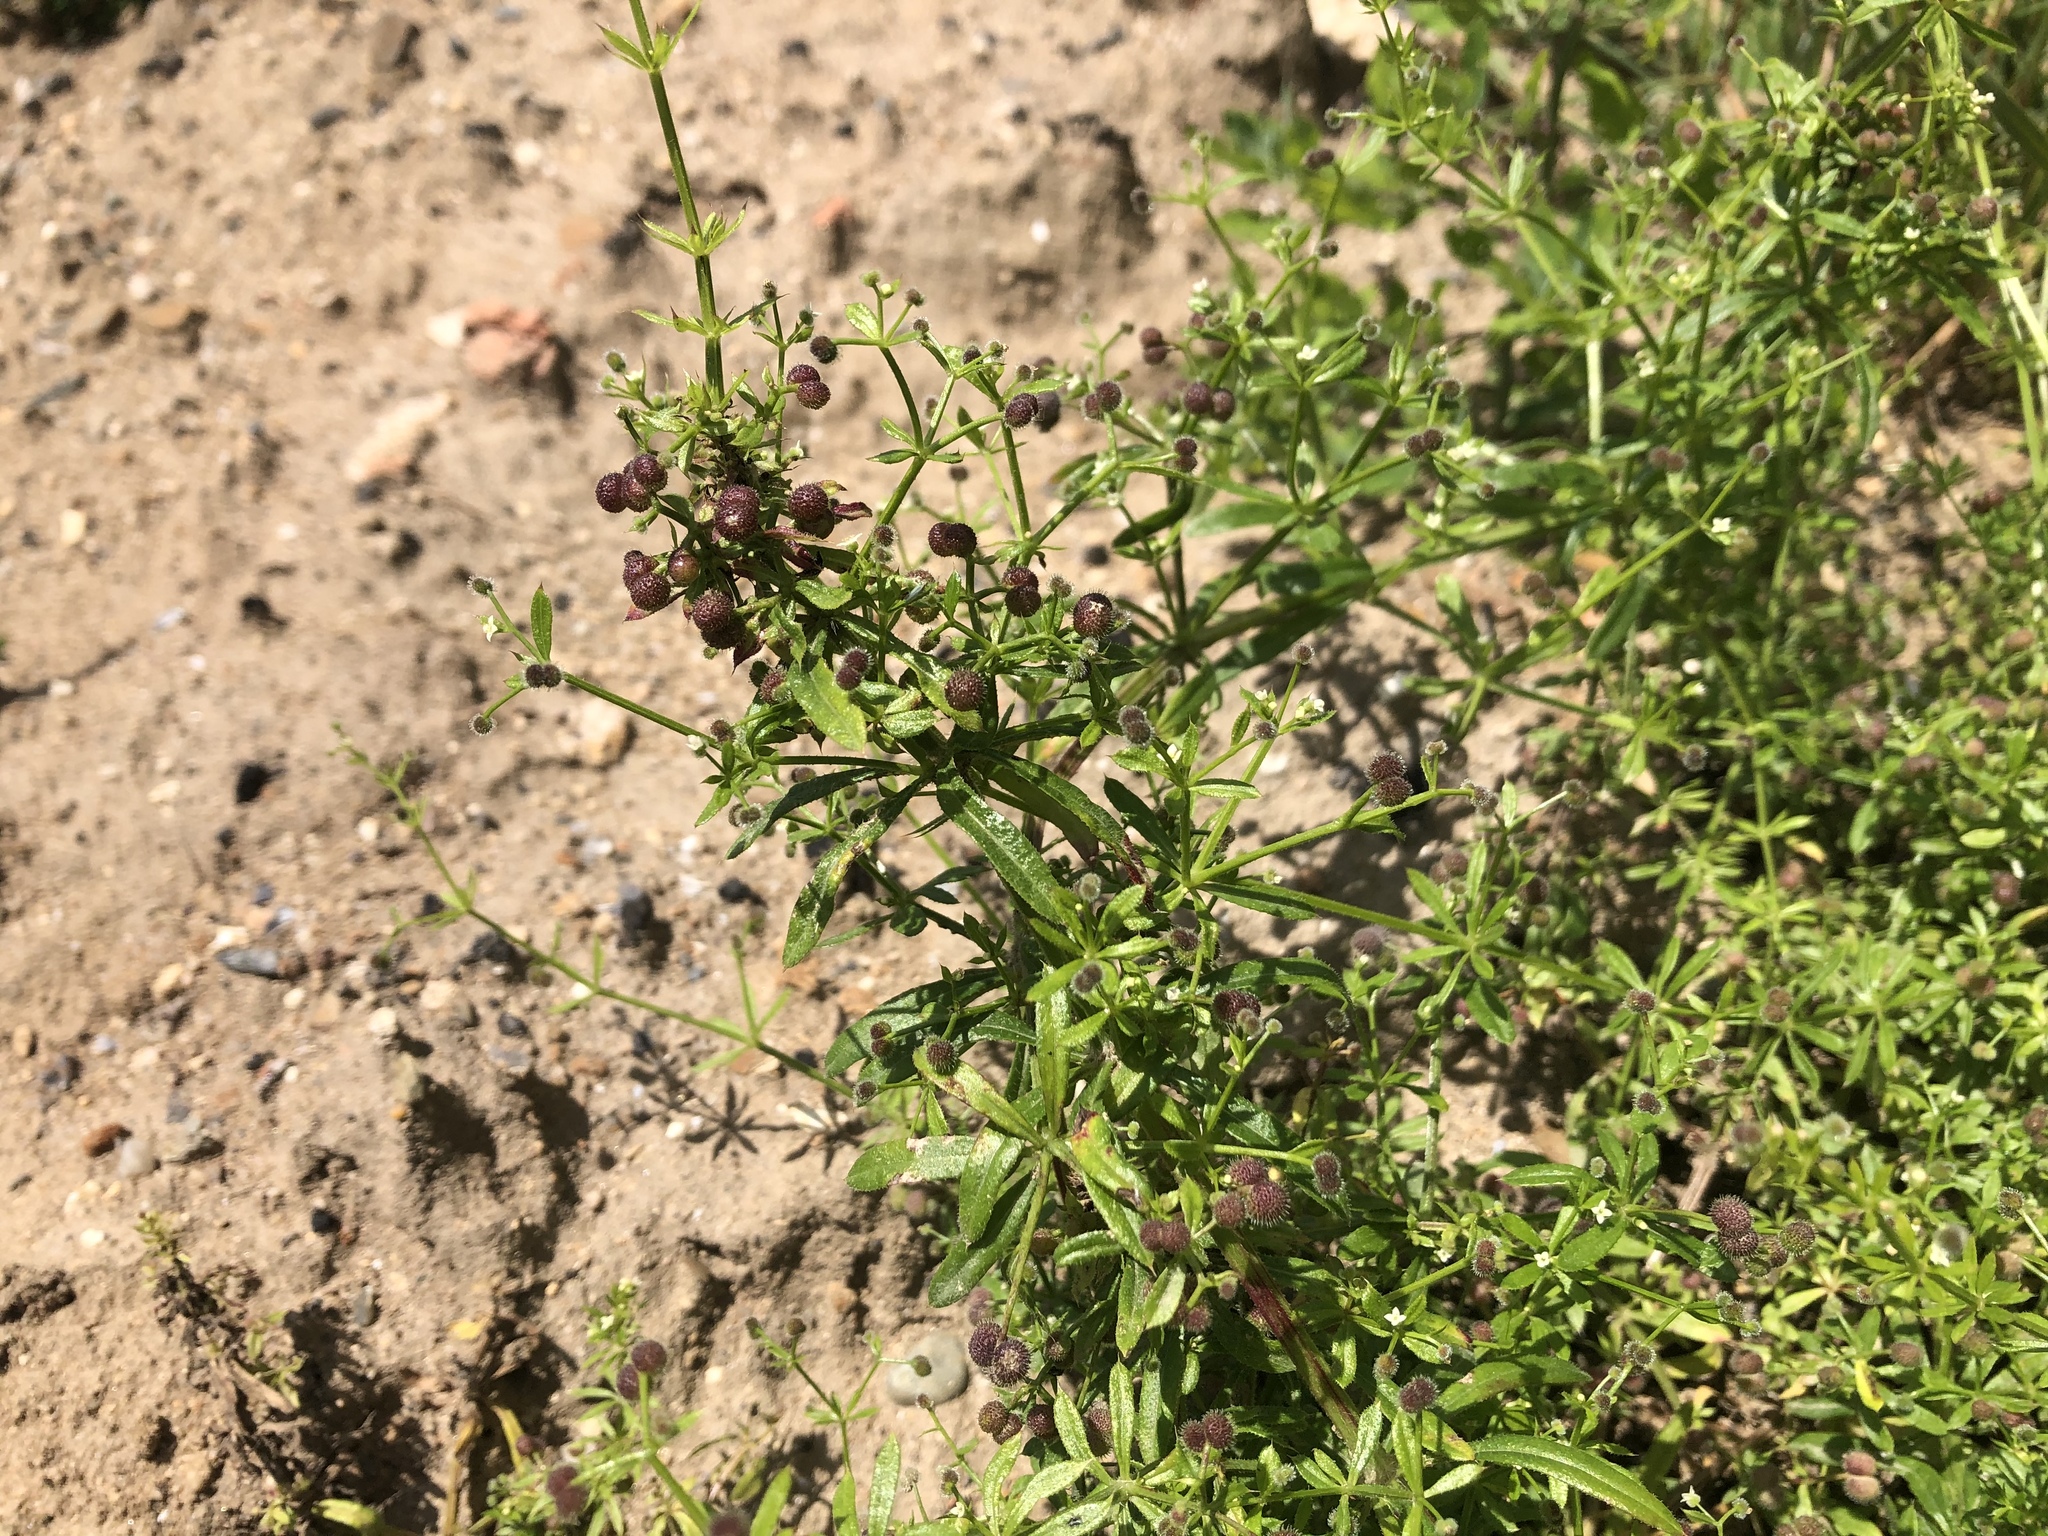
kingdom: Plantae
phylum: Tracheophyta
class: Magnoliopsida
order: Gentianales
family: Rubiaceae
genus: Galium
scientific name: Galium aparine
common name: Cleavers
